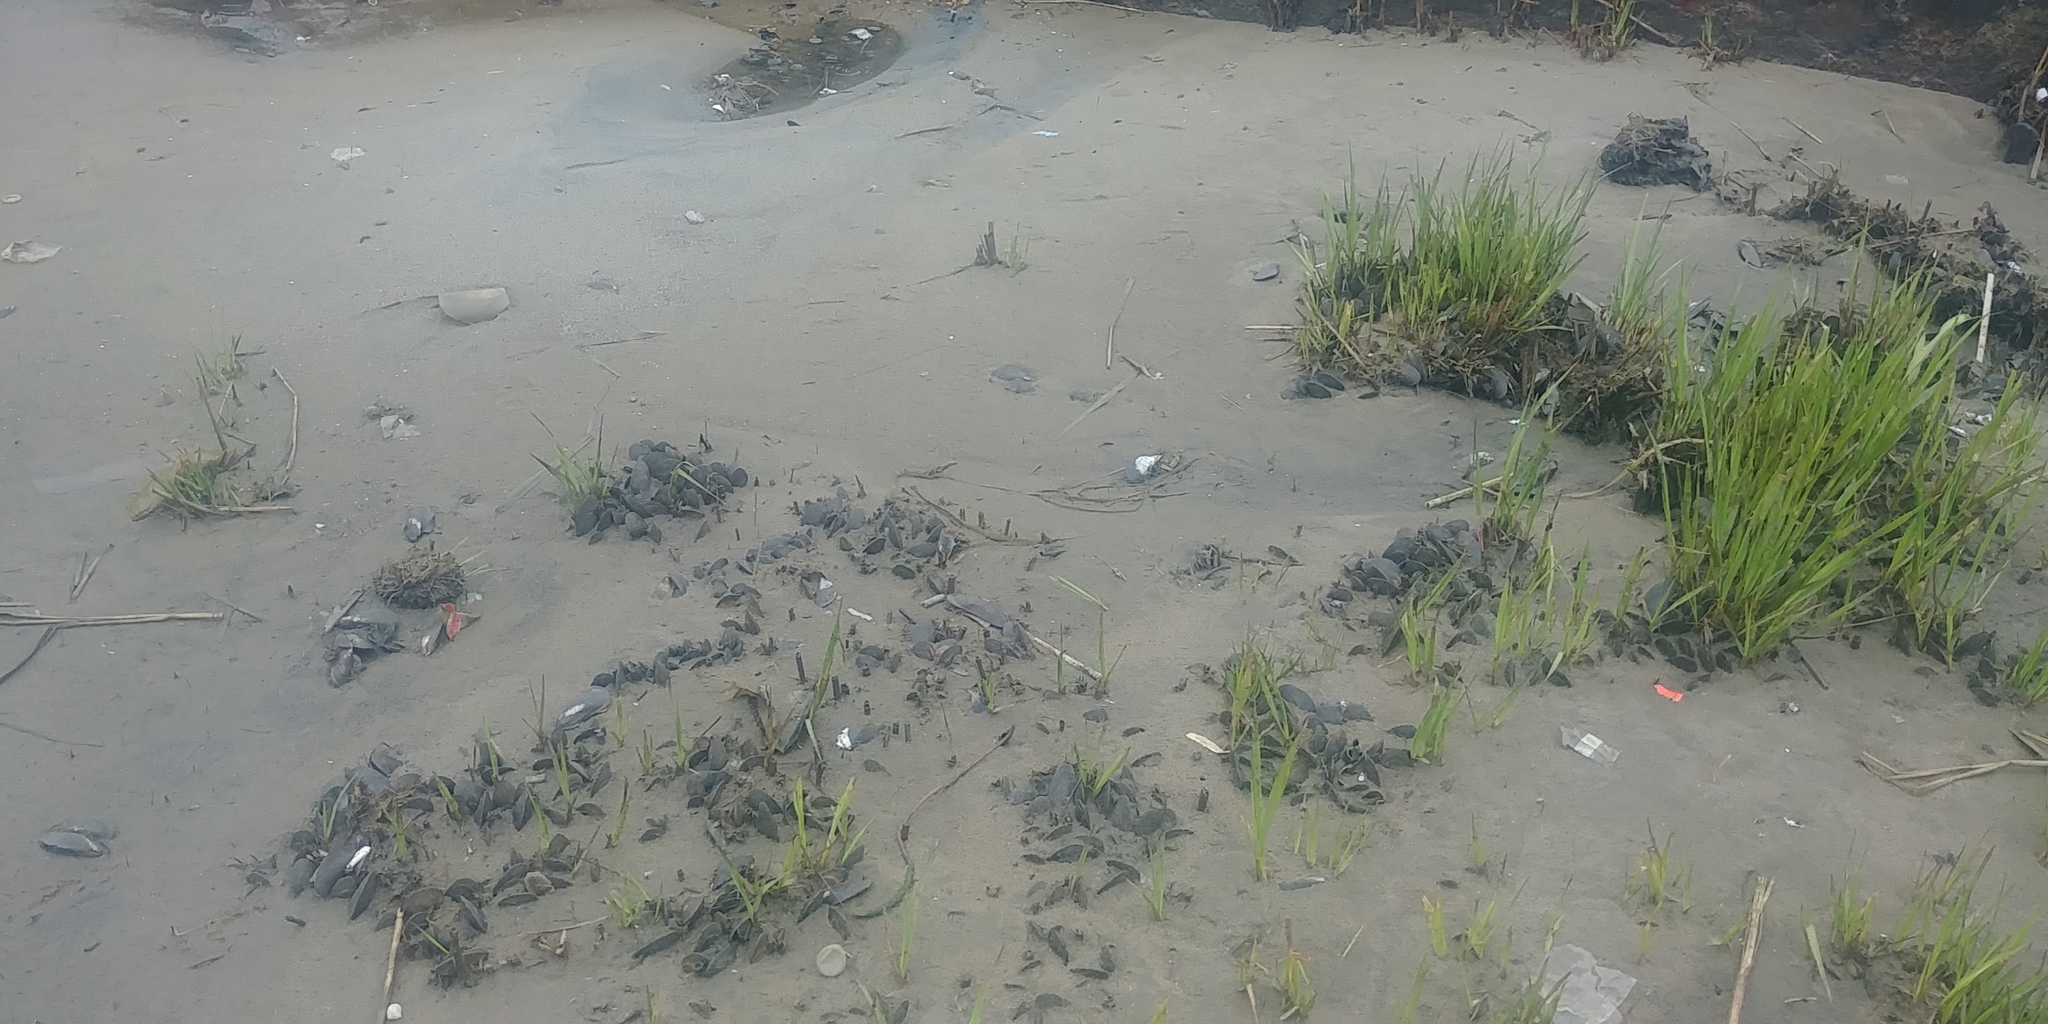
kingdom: Animalia
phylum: Mollusca
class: Bivalvia
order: Mytilida
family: Mytilidae
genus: Geukensia
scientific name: Geukensia demissa
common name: Ribbed mussel
